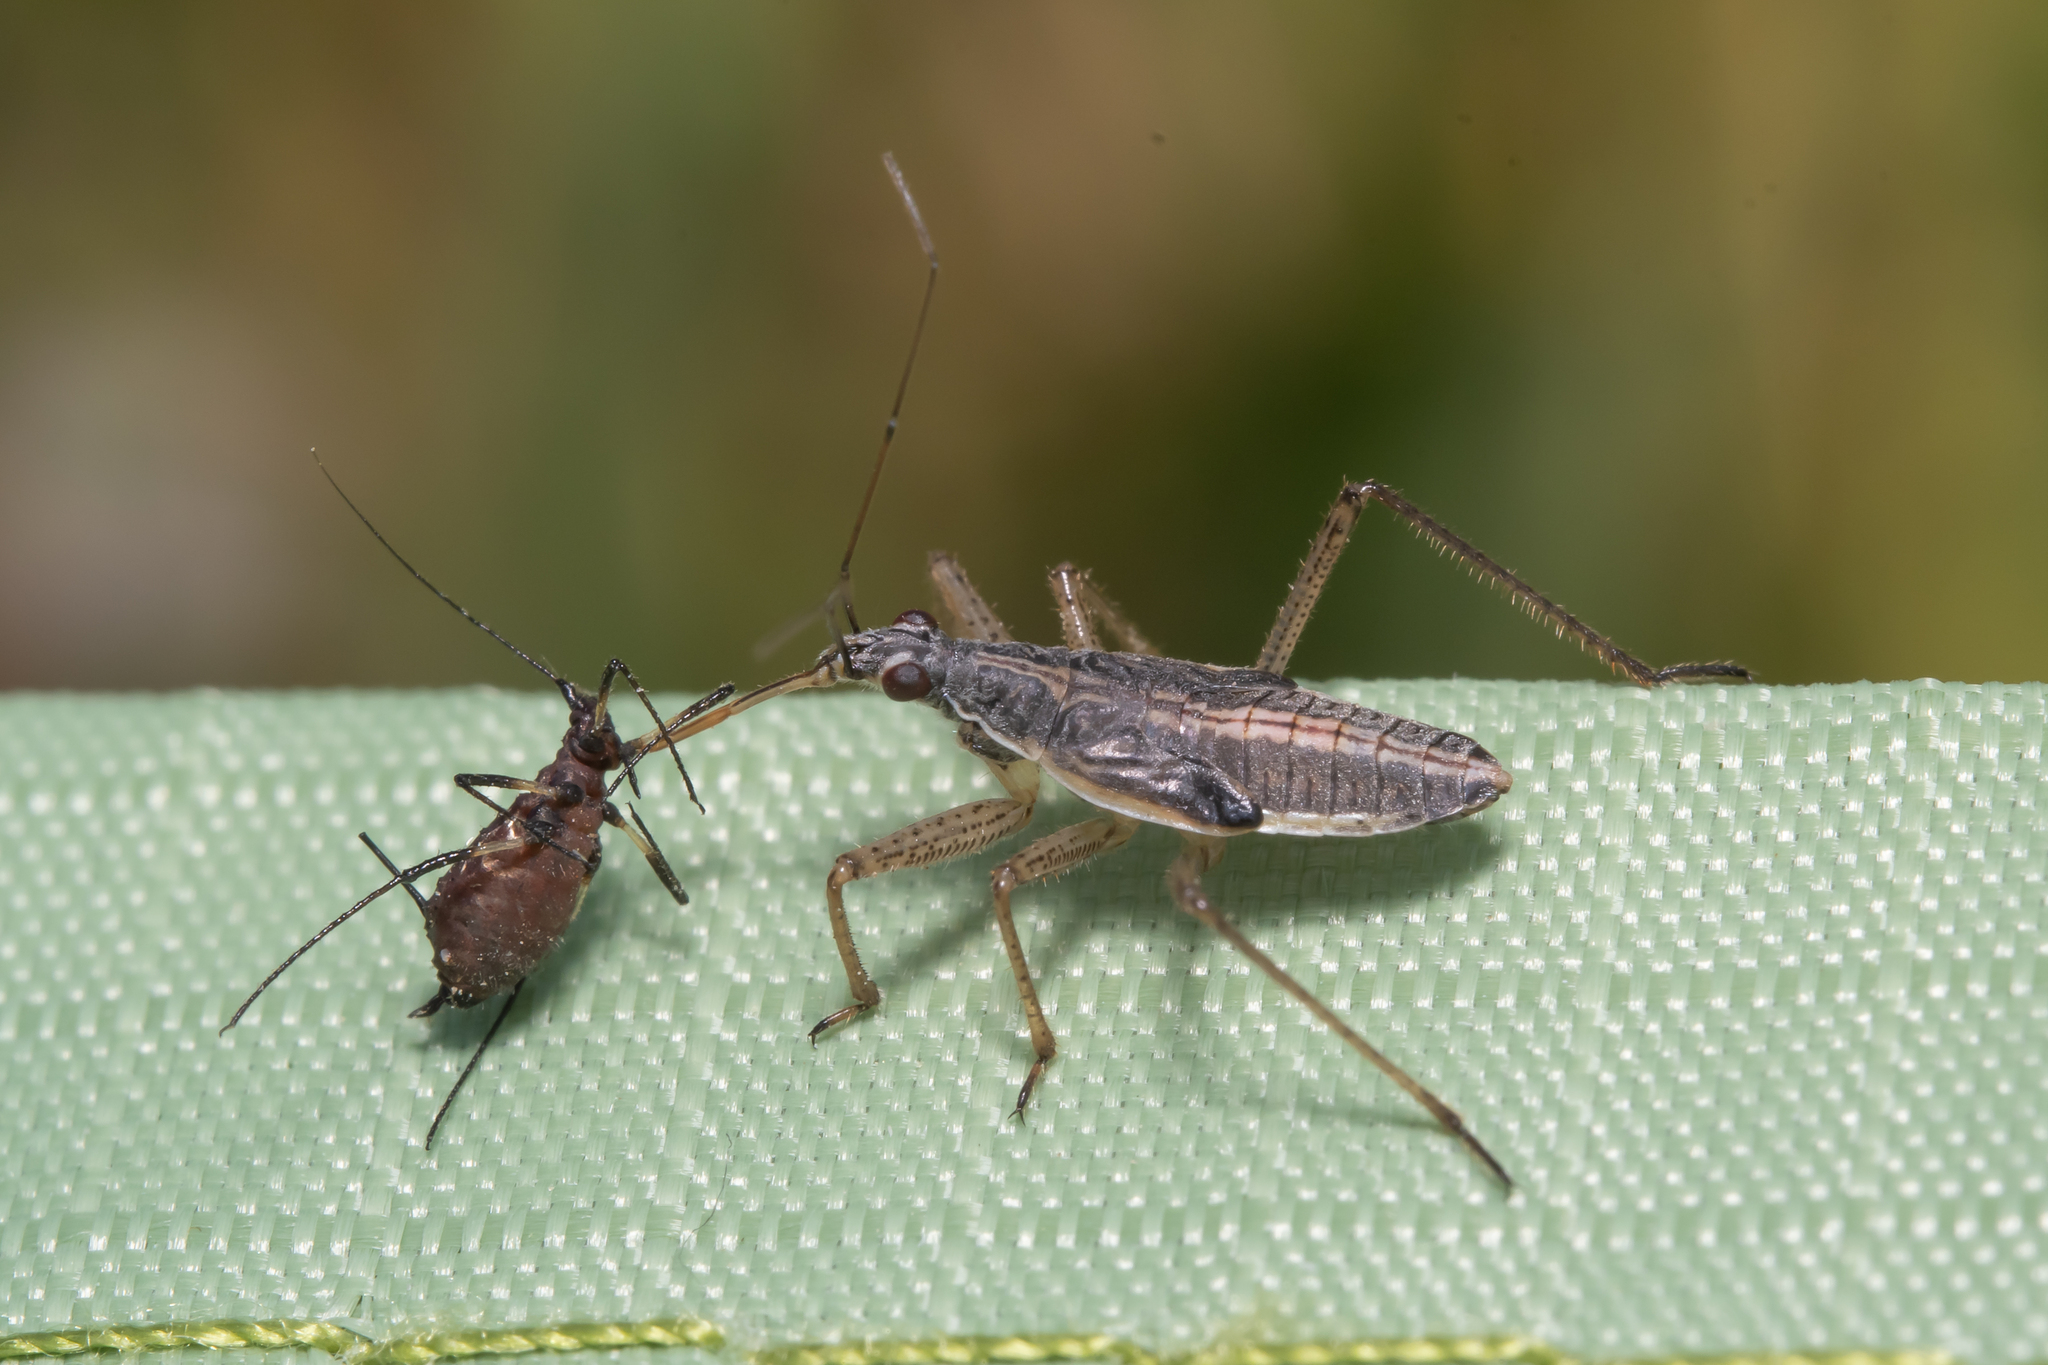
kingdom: Animalia
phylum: Arthropoda
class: Insecta
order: Hemiptera
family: Nabidae
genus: Nabis
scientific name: Nabis flavomarginatus
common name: Broad damselbug
